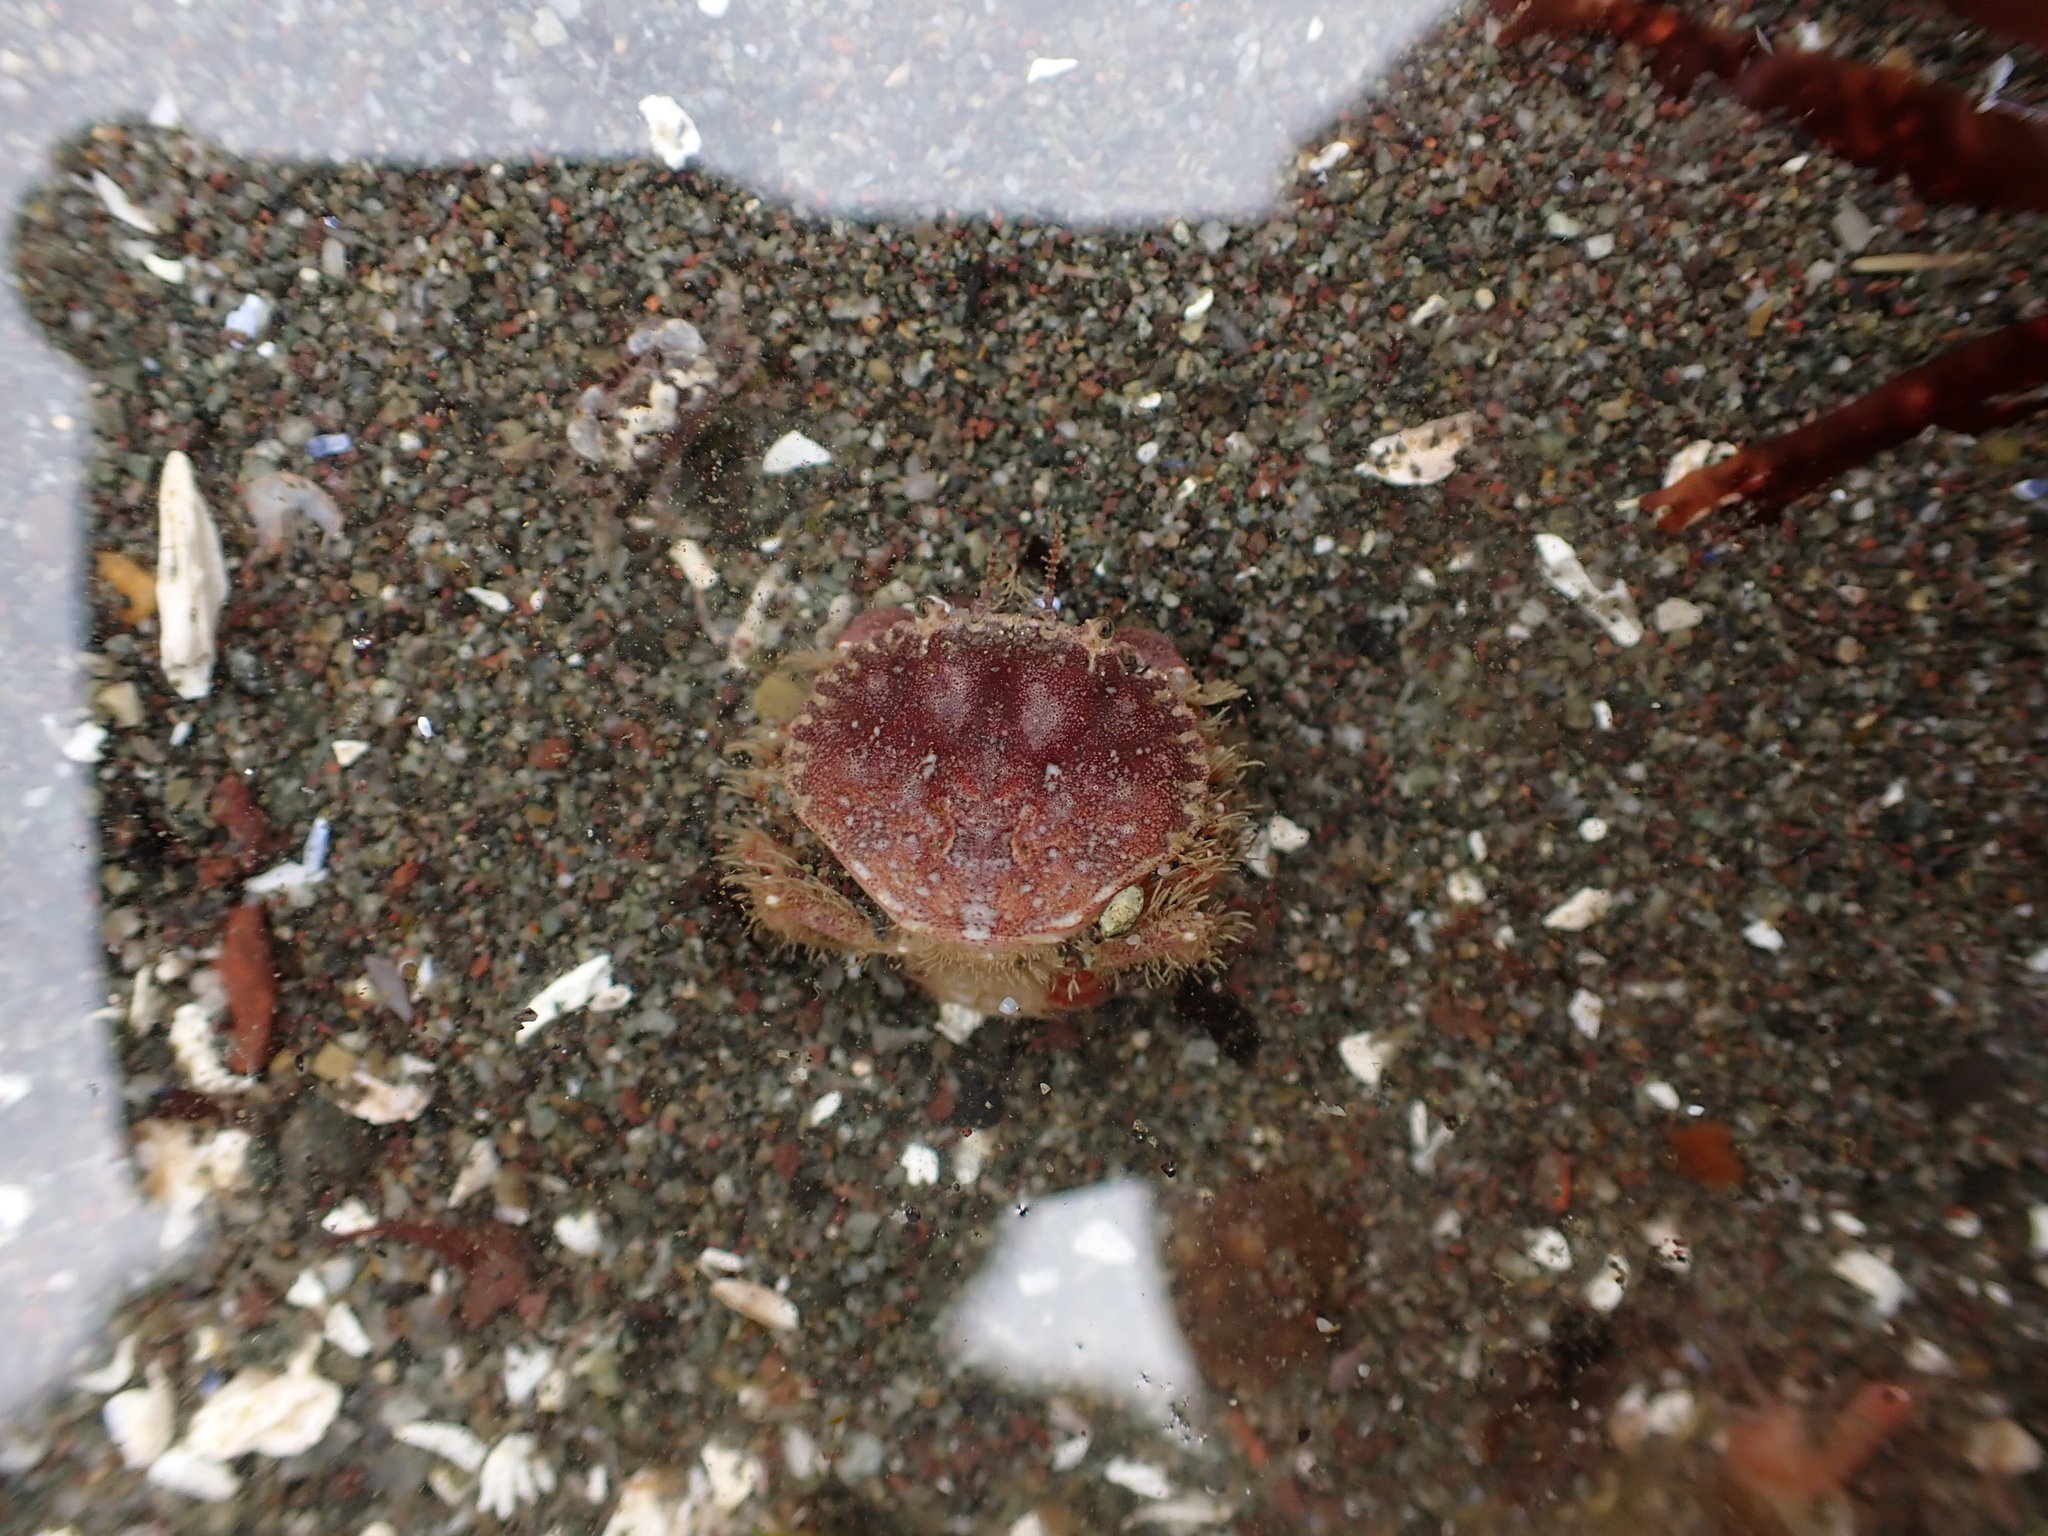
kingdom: Animalia
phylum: Arthropoda
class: Malacostraca
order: Decapoda
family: Cancridae
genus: Glebocarcinus
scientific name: Glebocarcinus oregonensis
